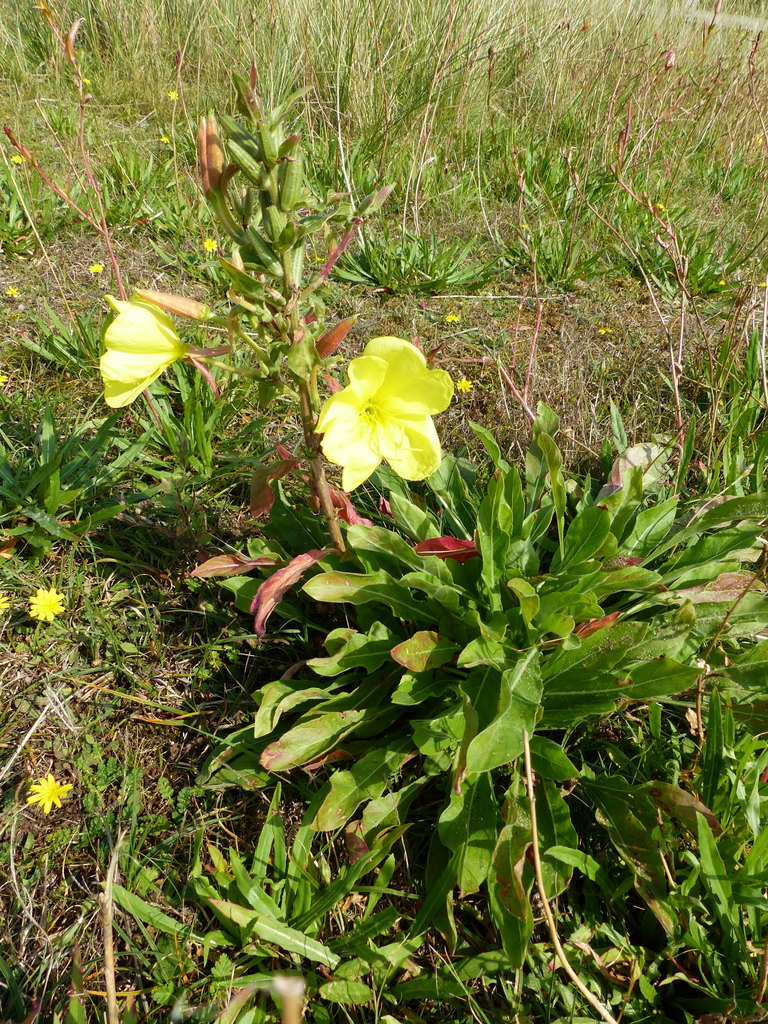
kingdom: Plantae
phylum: Tracheophyta
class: Magnoliopsida
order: Myrtales
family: Onagraceae
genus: Oenothera
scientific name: Oenothera glazioviana
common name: Large-flowered evening-primrose
